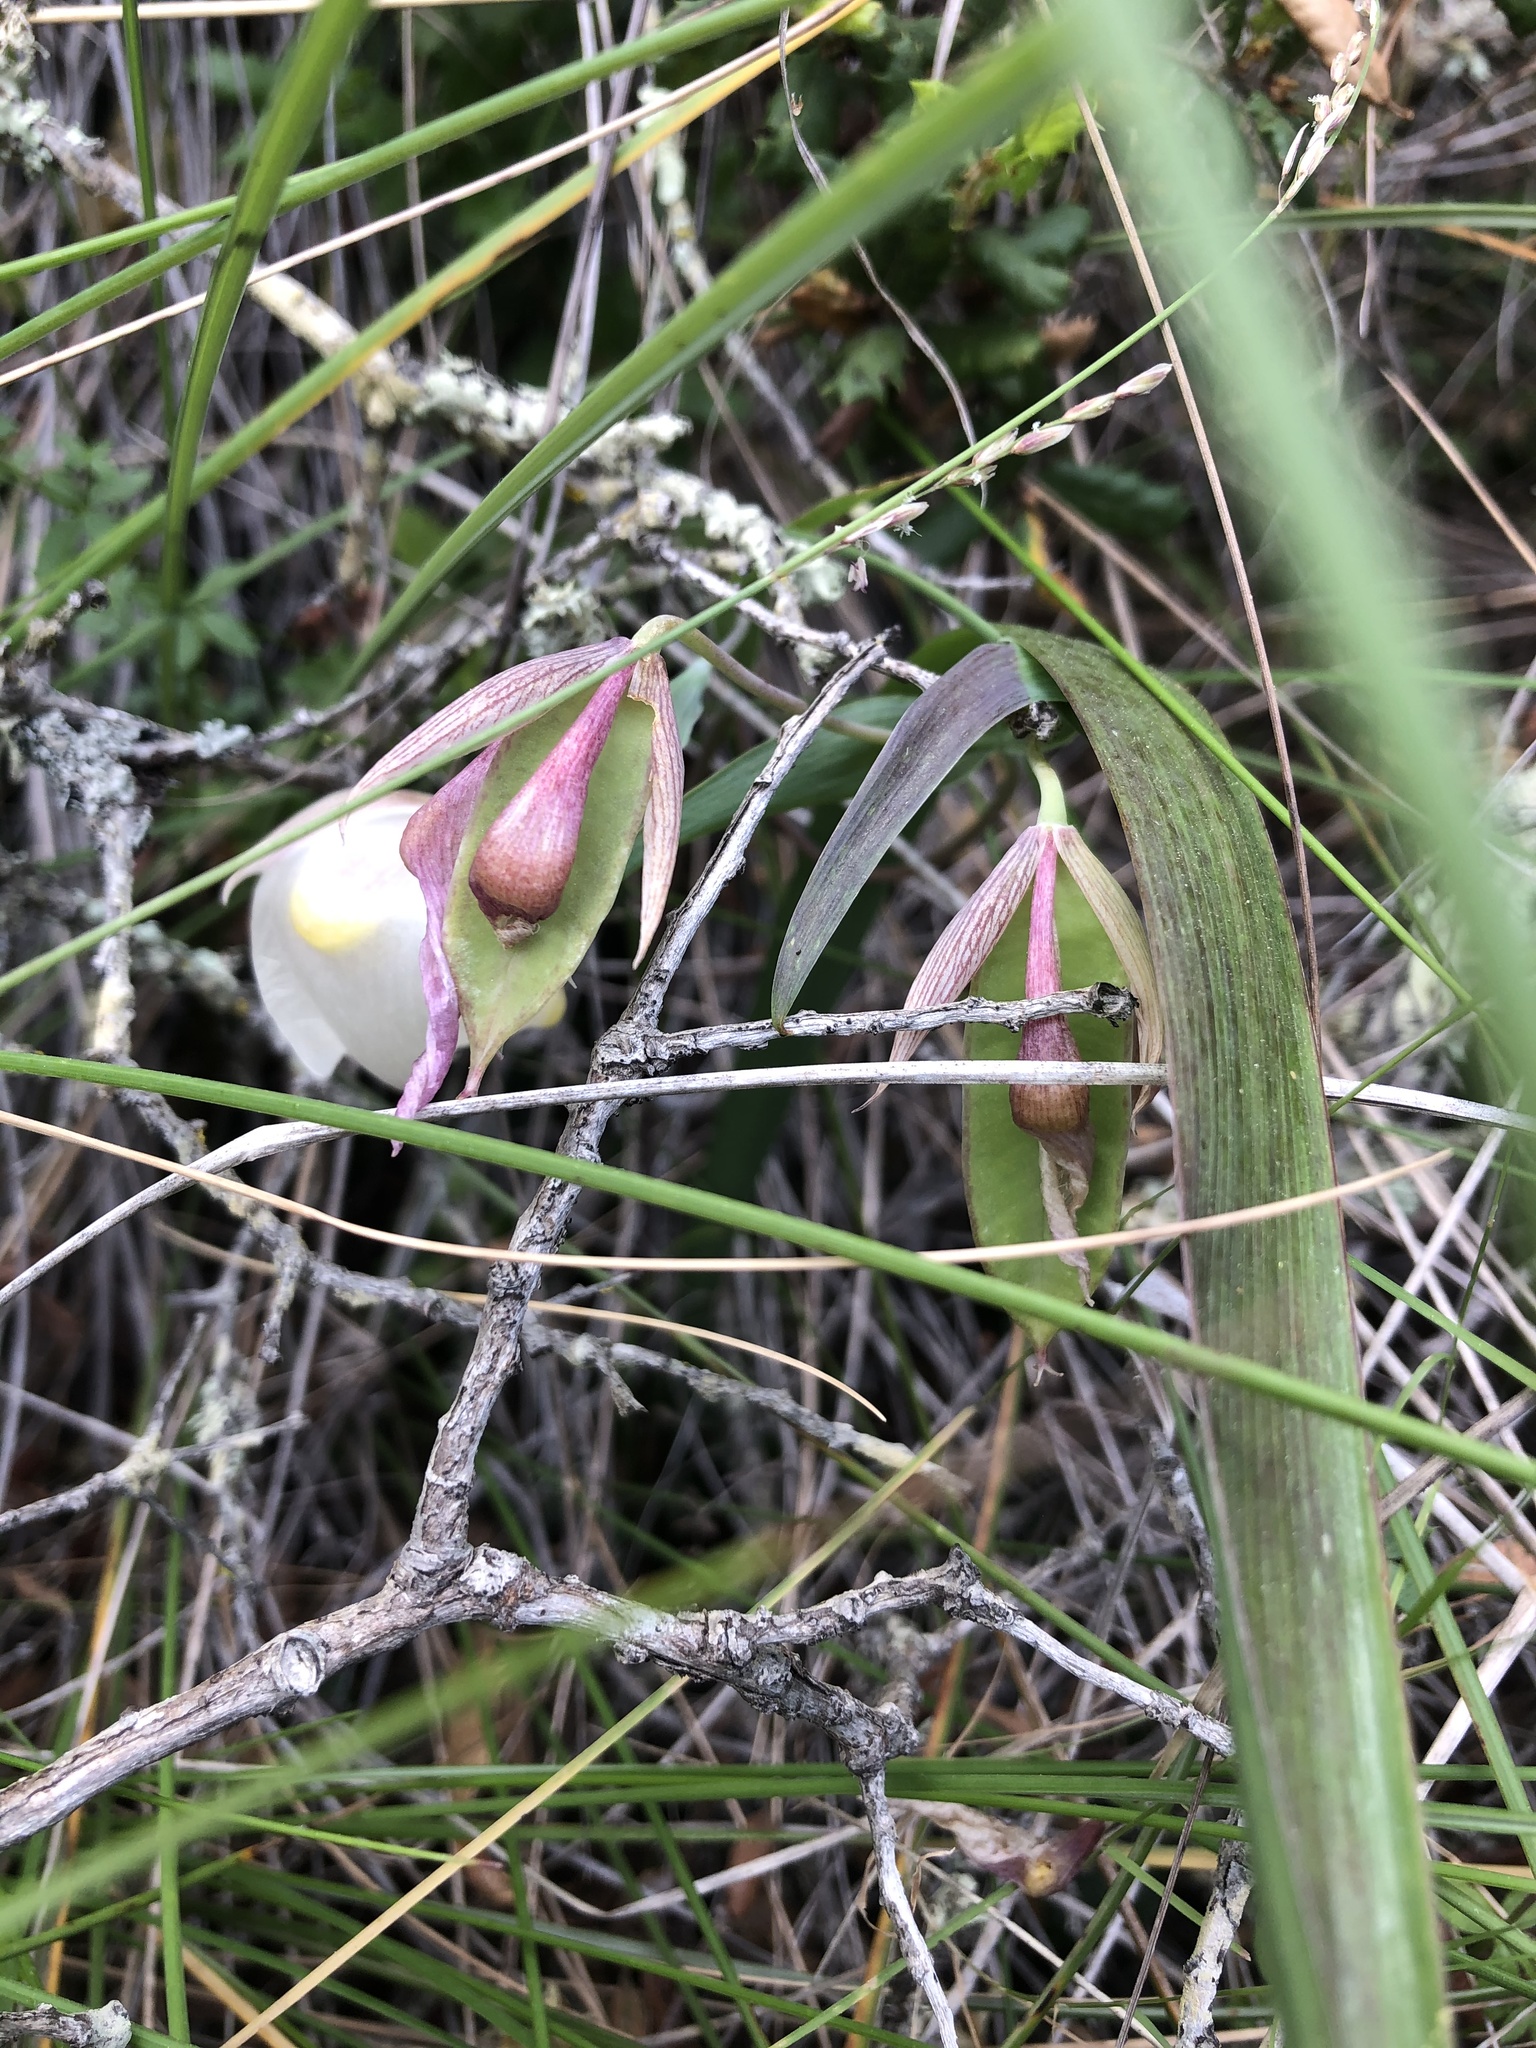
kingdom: Plantae
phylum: Tracheophyta
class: Liliopsida
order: Liliales
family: Liliaceae
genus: Calochortus
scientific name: Calochortus albus
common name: Fairy-lantern
